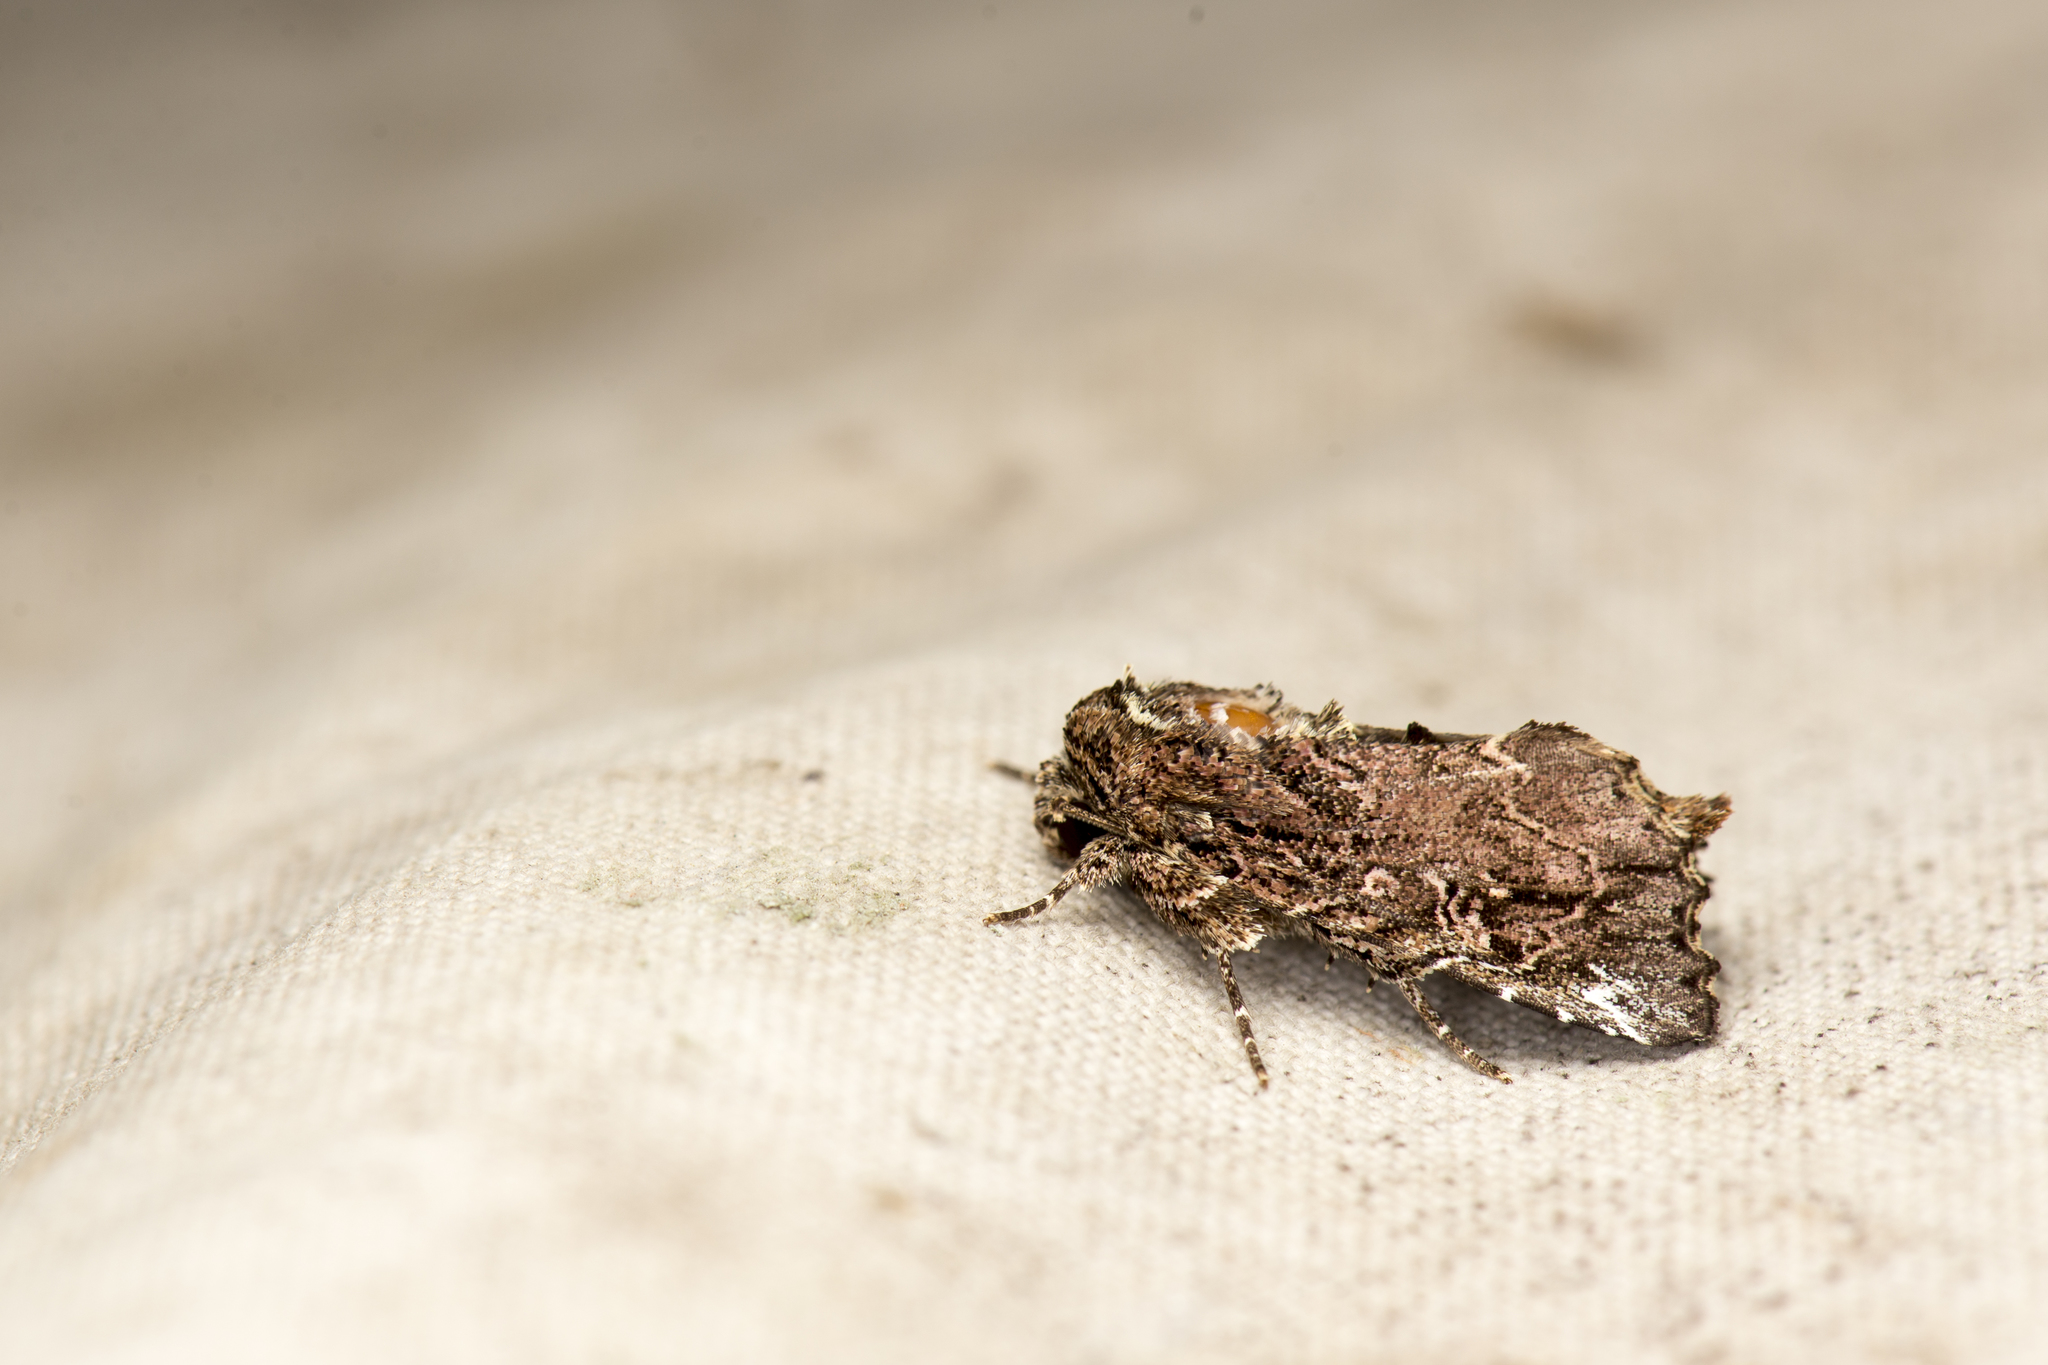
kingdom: Animalia
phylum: Arthropoda
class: Insecta
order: Lepidoptera
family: Noctuidae
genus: Callopistria
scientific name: Callopistria clava
